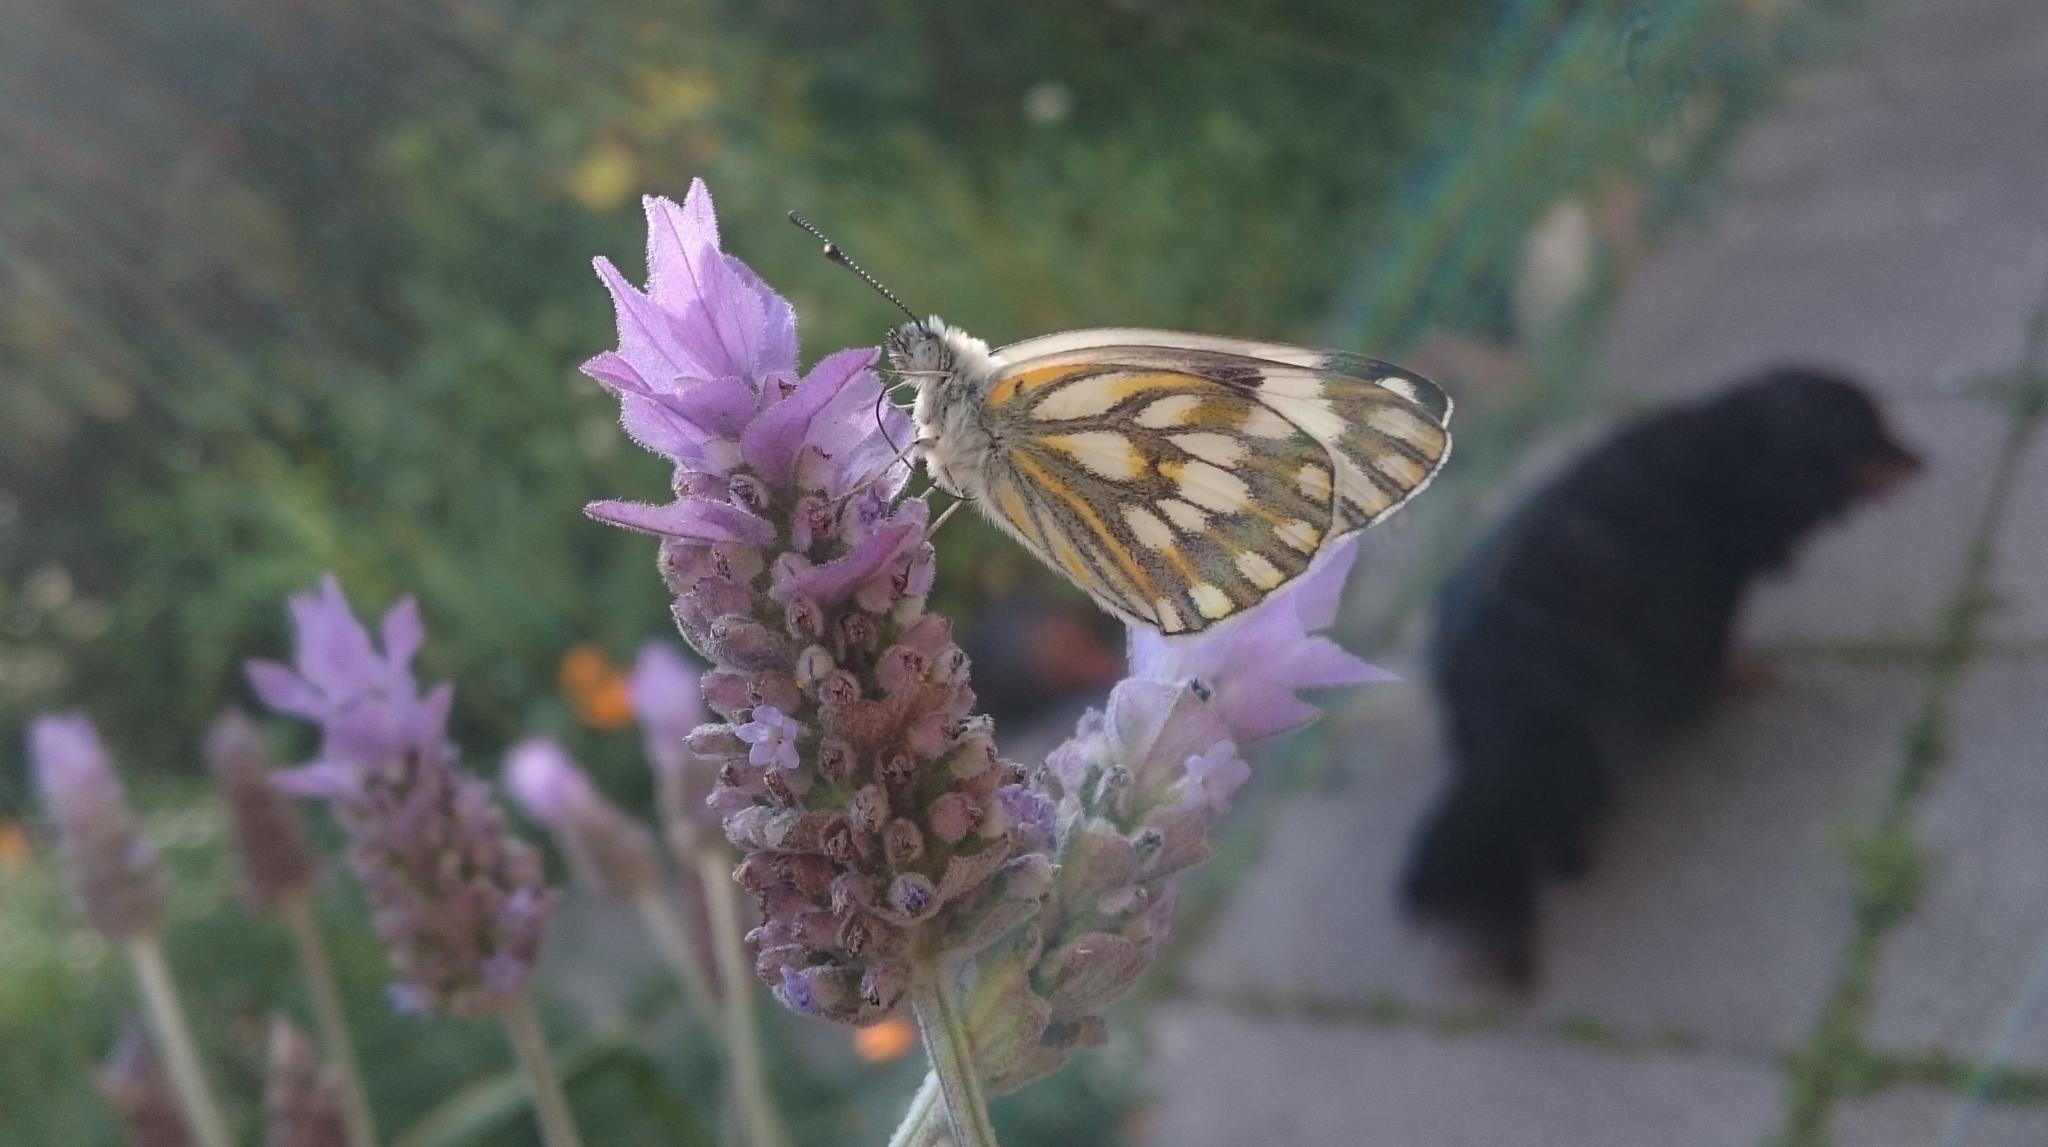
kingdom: Animalia
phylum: Arthropoda
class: Insecta
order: Lepidoptera
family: Pieridae
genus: Pontia
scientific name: Pontia helice
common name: Meadow white
